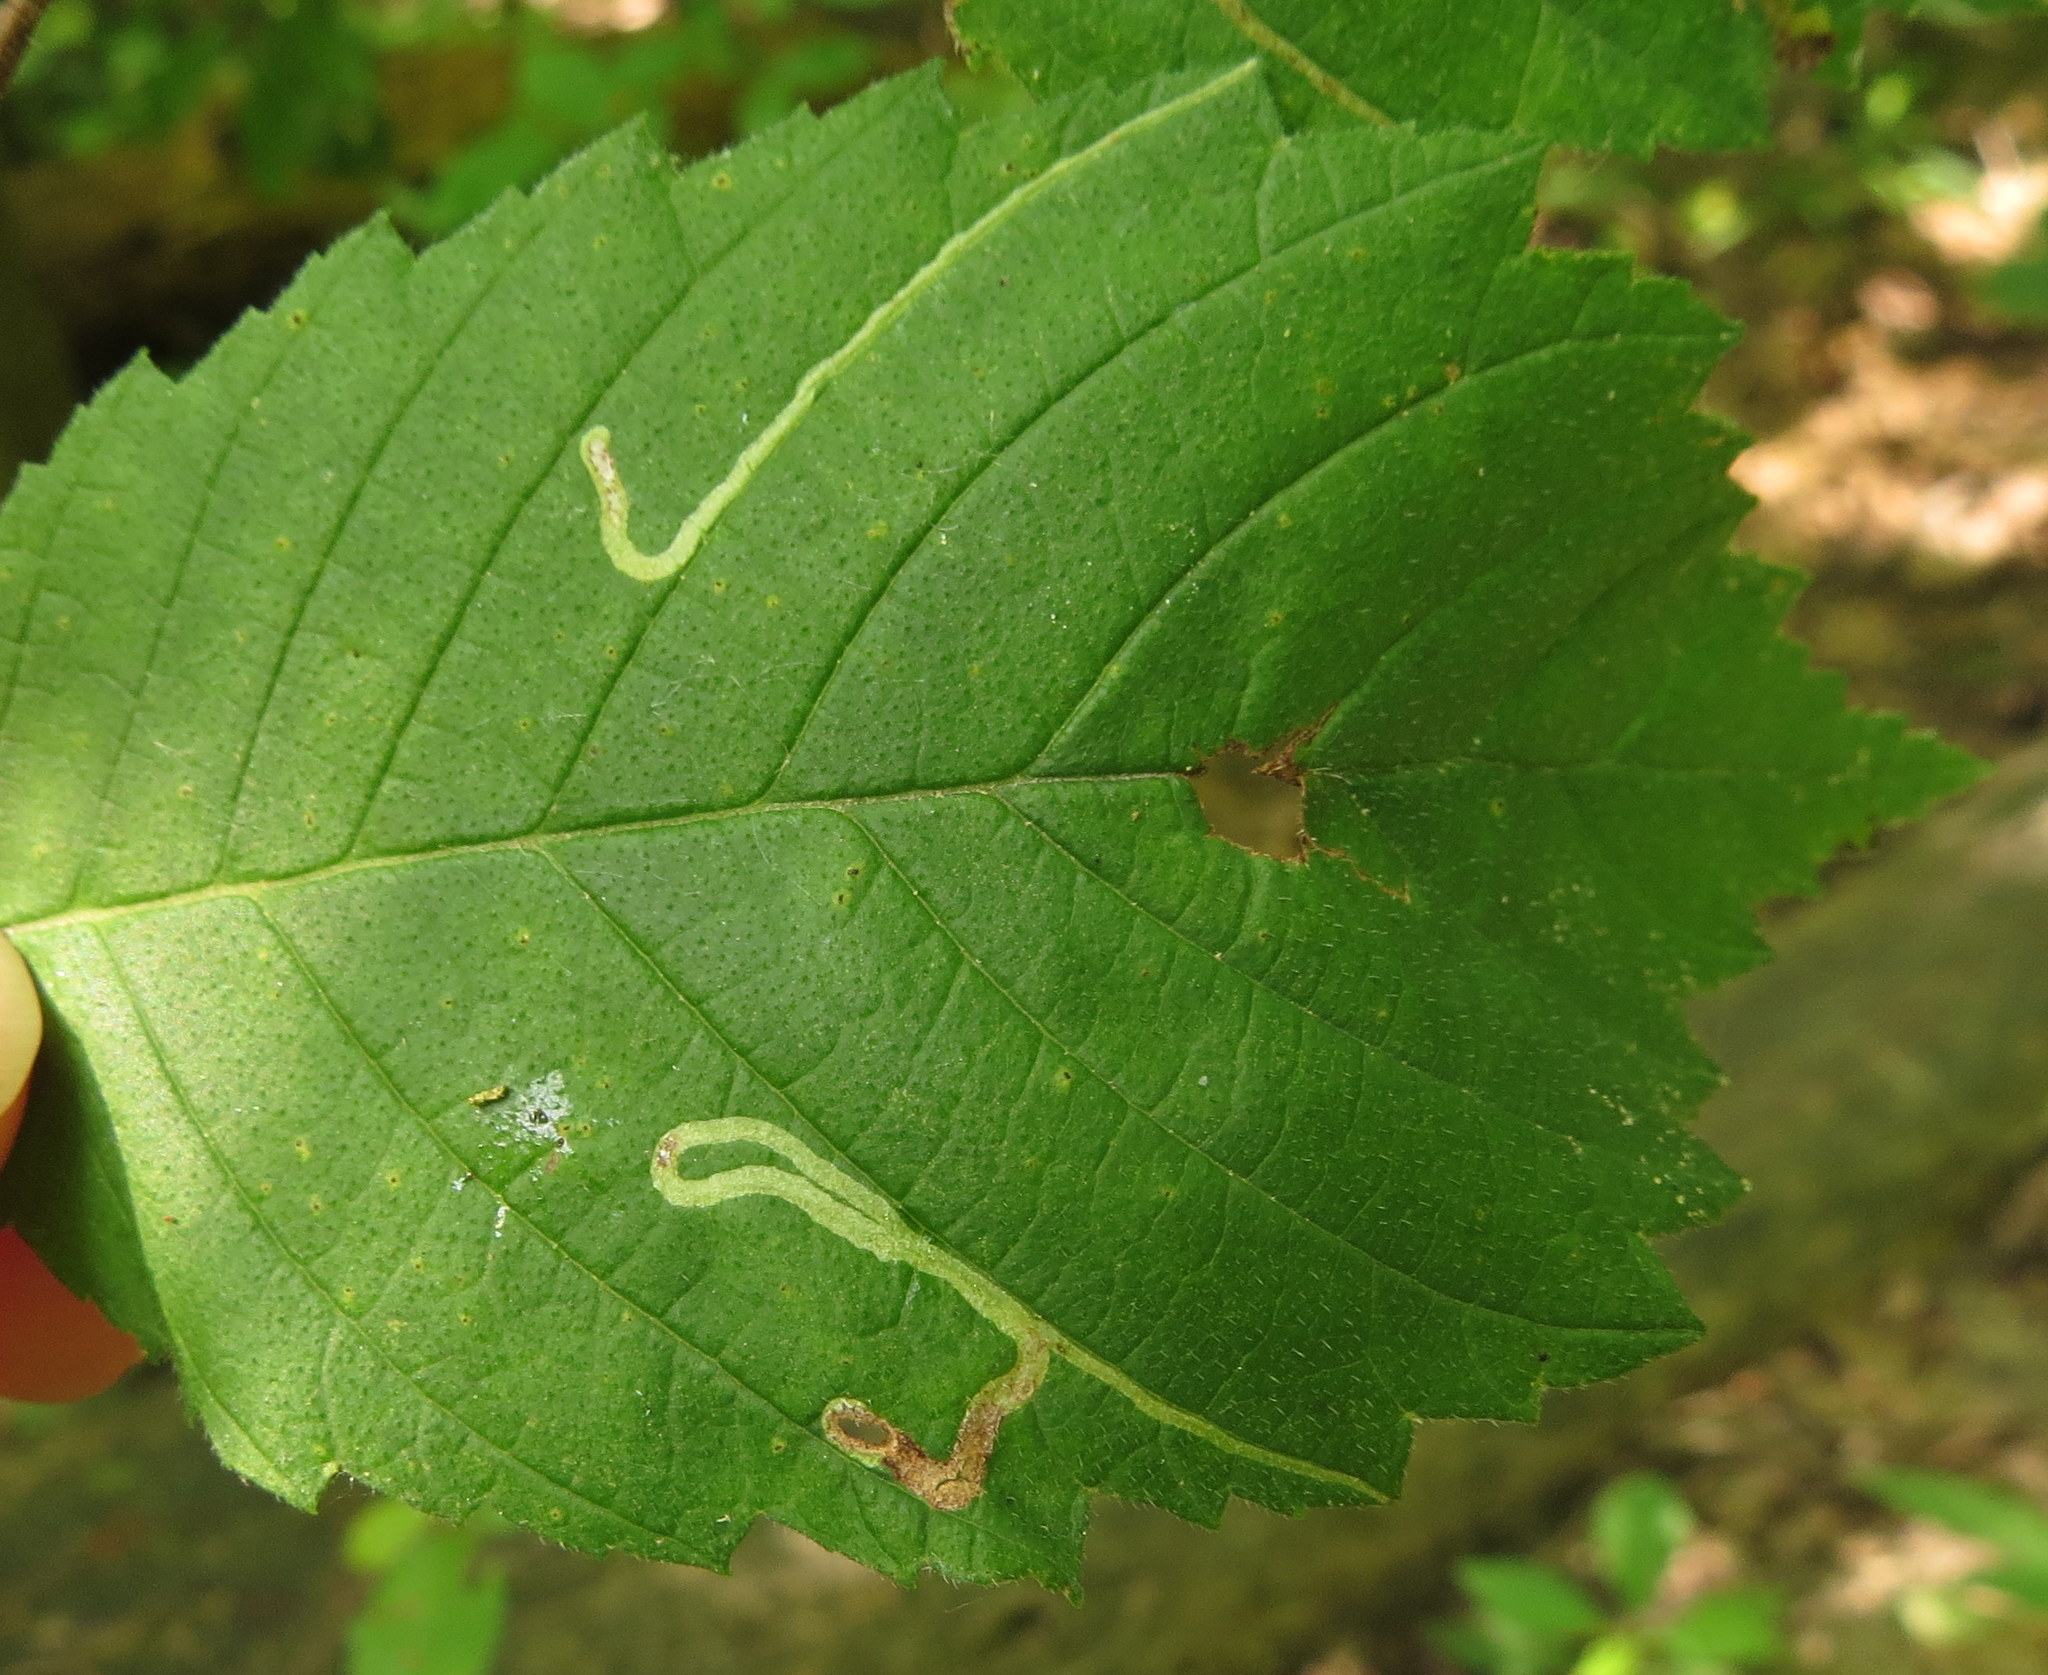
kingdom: Animalia
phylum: Arthropoda
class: Insecta
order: Diptera
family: Agromyzidae
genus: Agromyza
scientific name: Agromyza aristata
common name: Elm agromyzid leafminer
